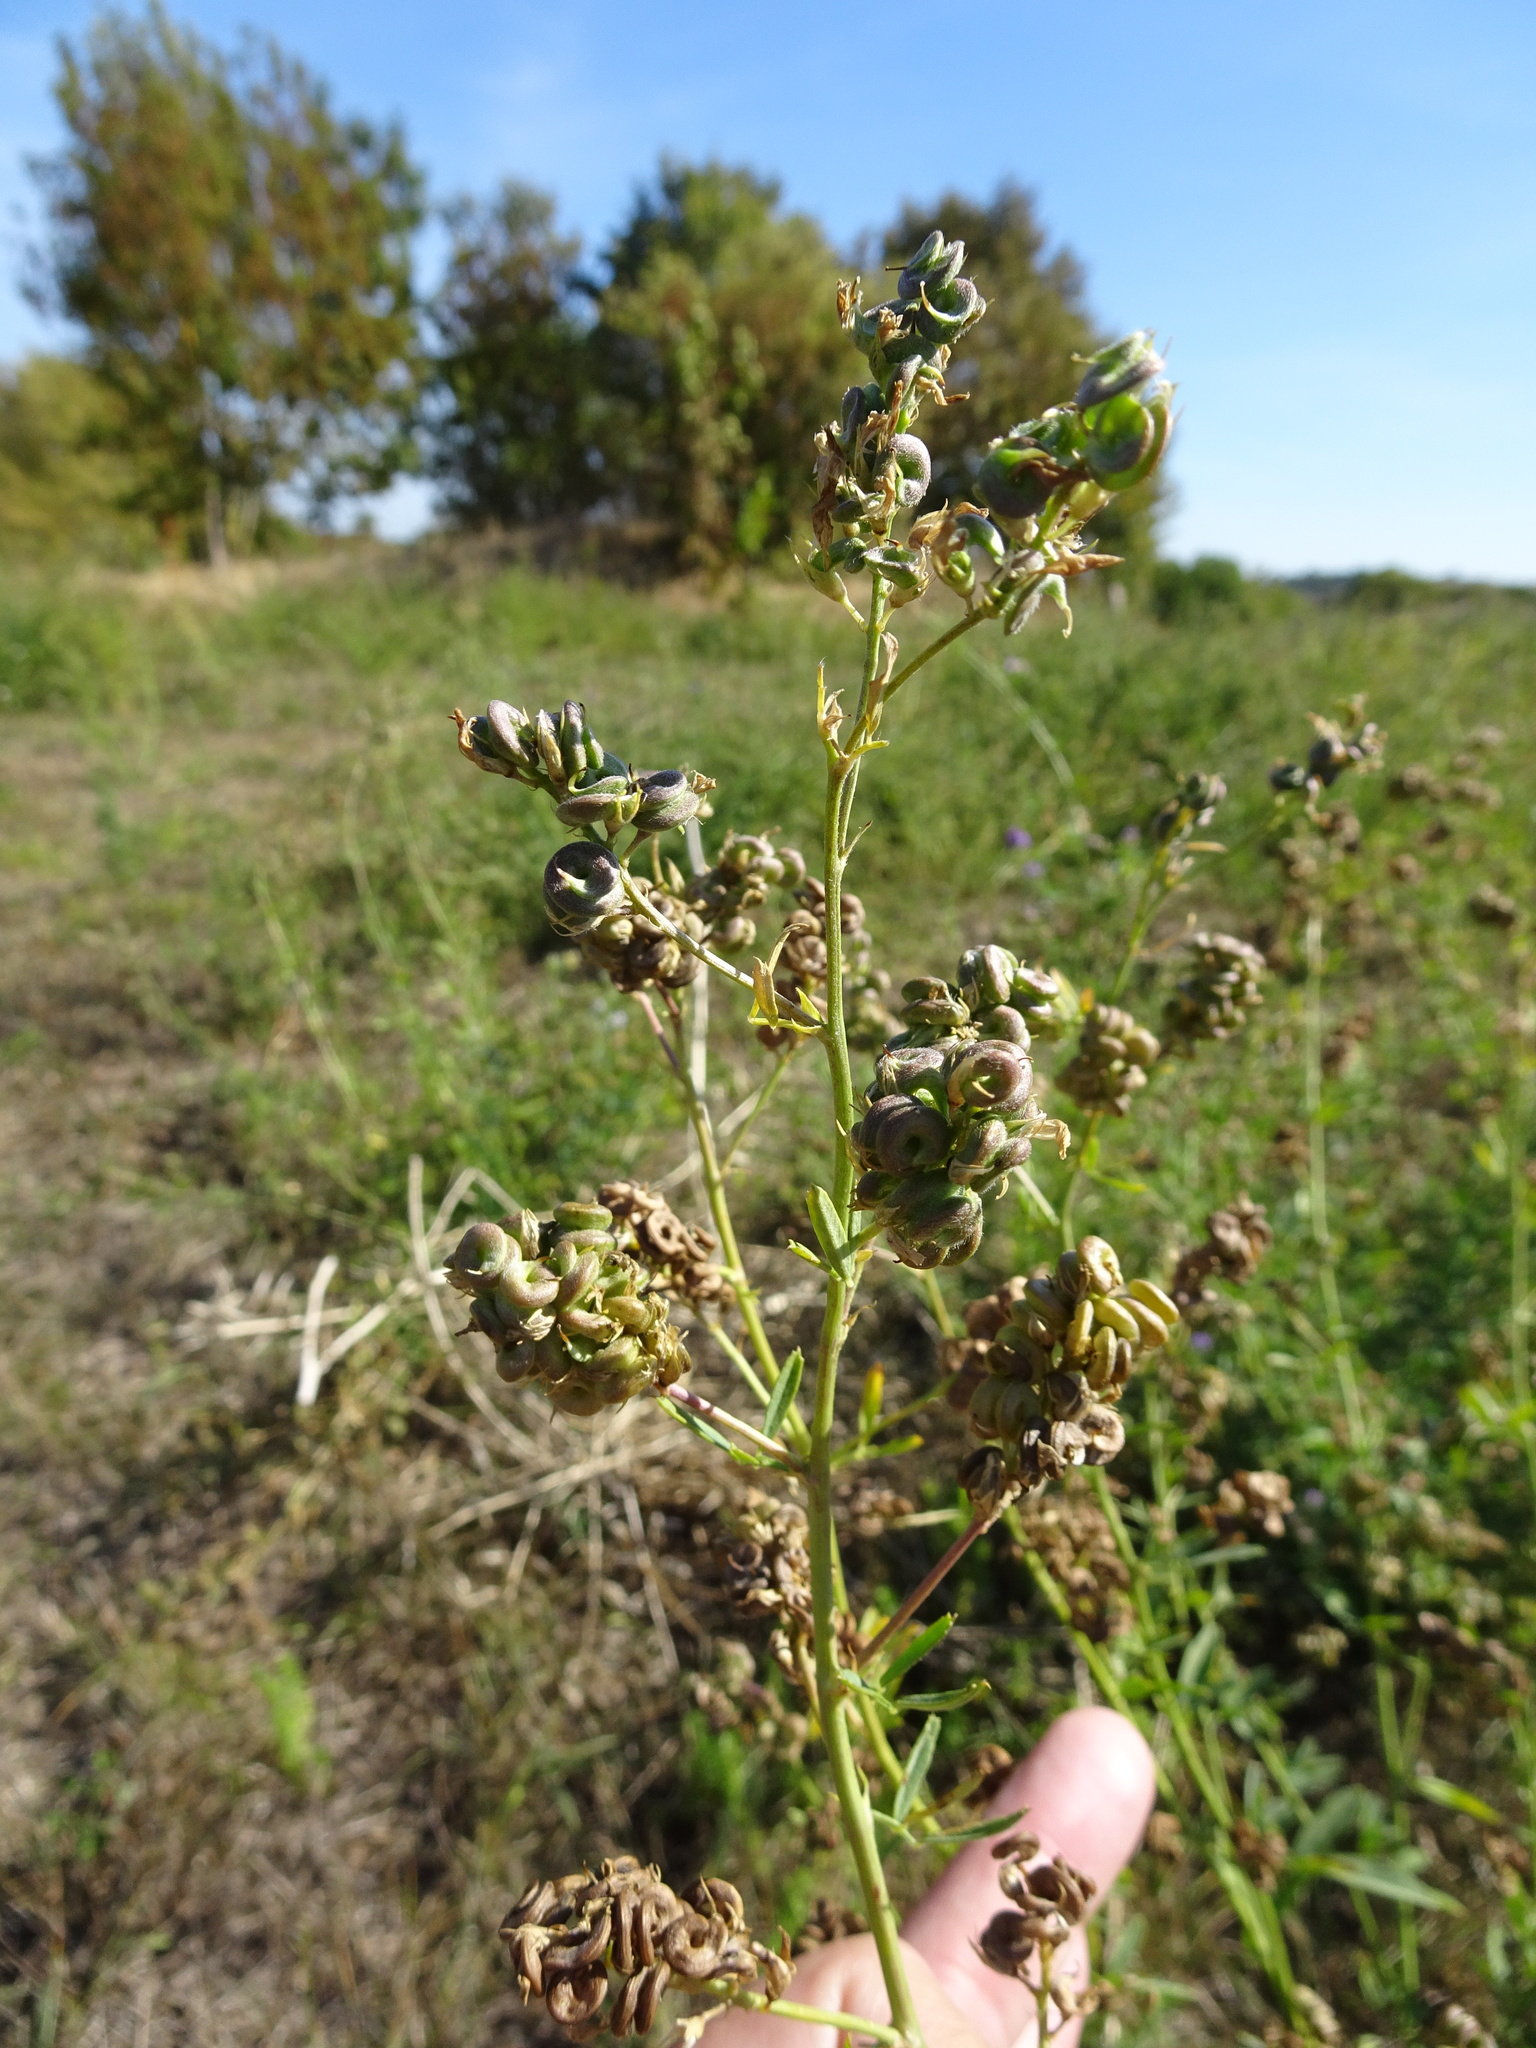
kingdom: Plantae
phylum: Tracheophyta
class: Magnoliopsida
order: Fabales
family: Fabaceae
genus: Medicago
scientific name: Medicago varia
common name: Sand lucerne
